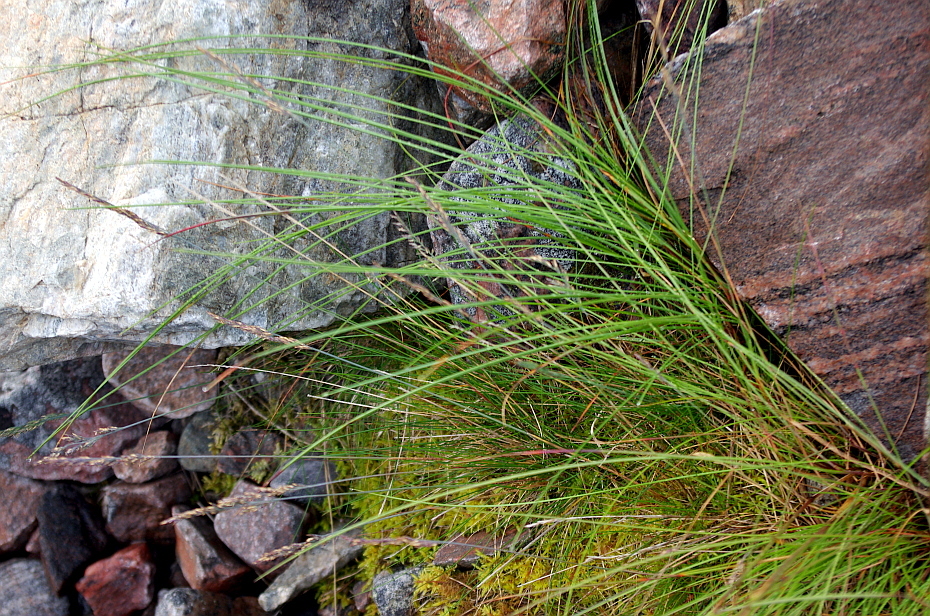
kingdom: Plantae
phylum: Tracheophyta
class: Liliopsida
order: Poales
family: Poaceae
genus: Festuca
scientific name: Festuca rubra
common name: Red fescue
